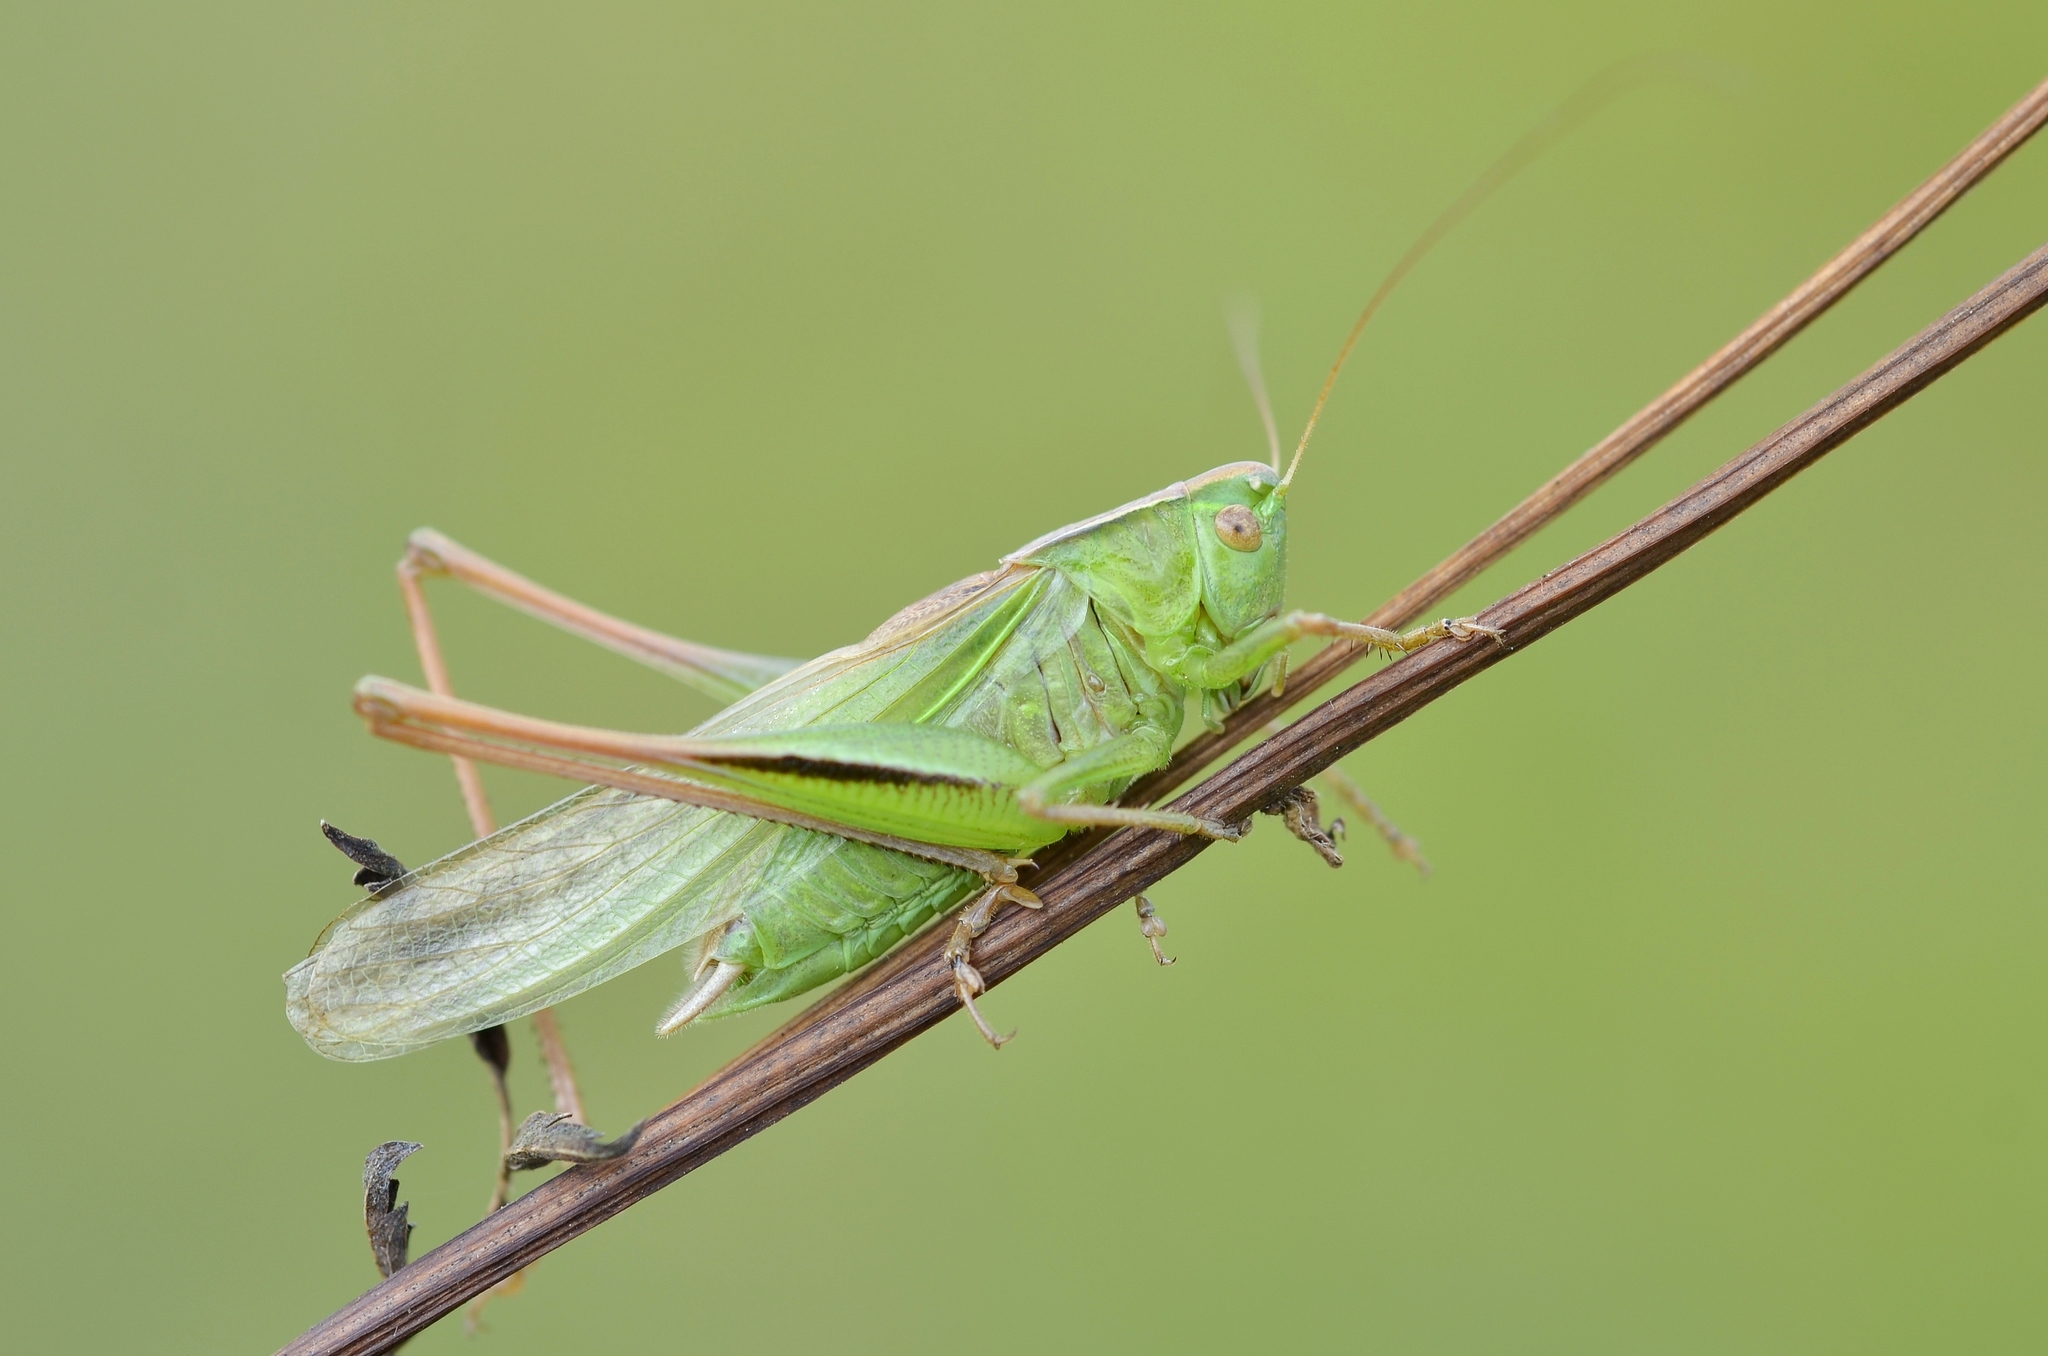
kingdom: Animalia
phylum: Arthropoda
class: Insecta
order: Orthoptera
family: Tettigoniidae
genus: Bicolorana
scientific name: Bicolorana bicolor
